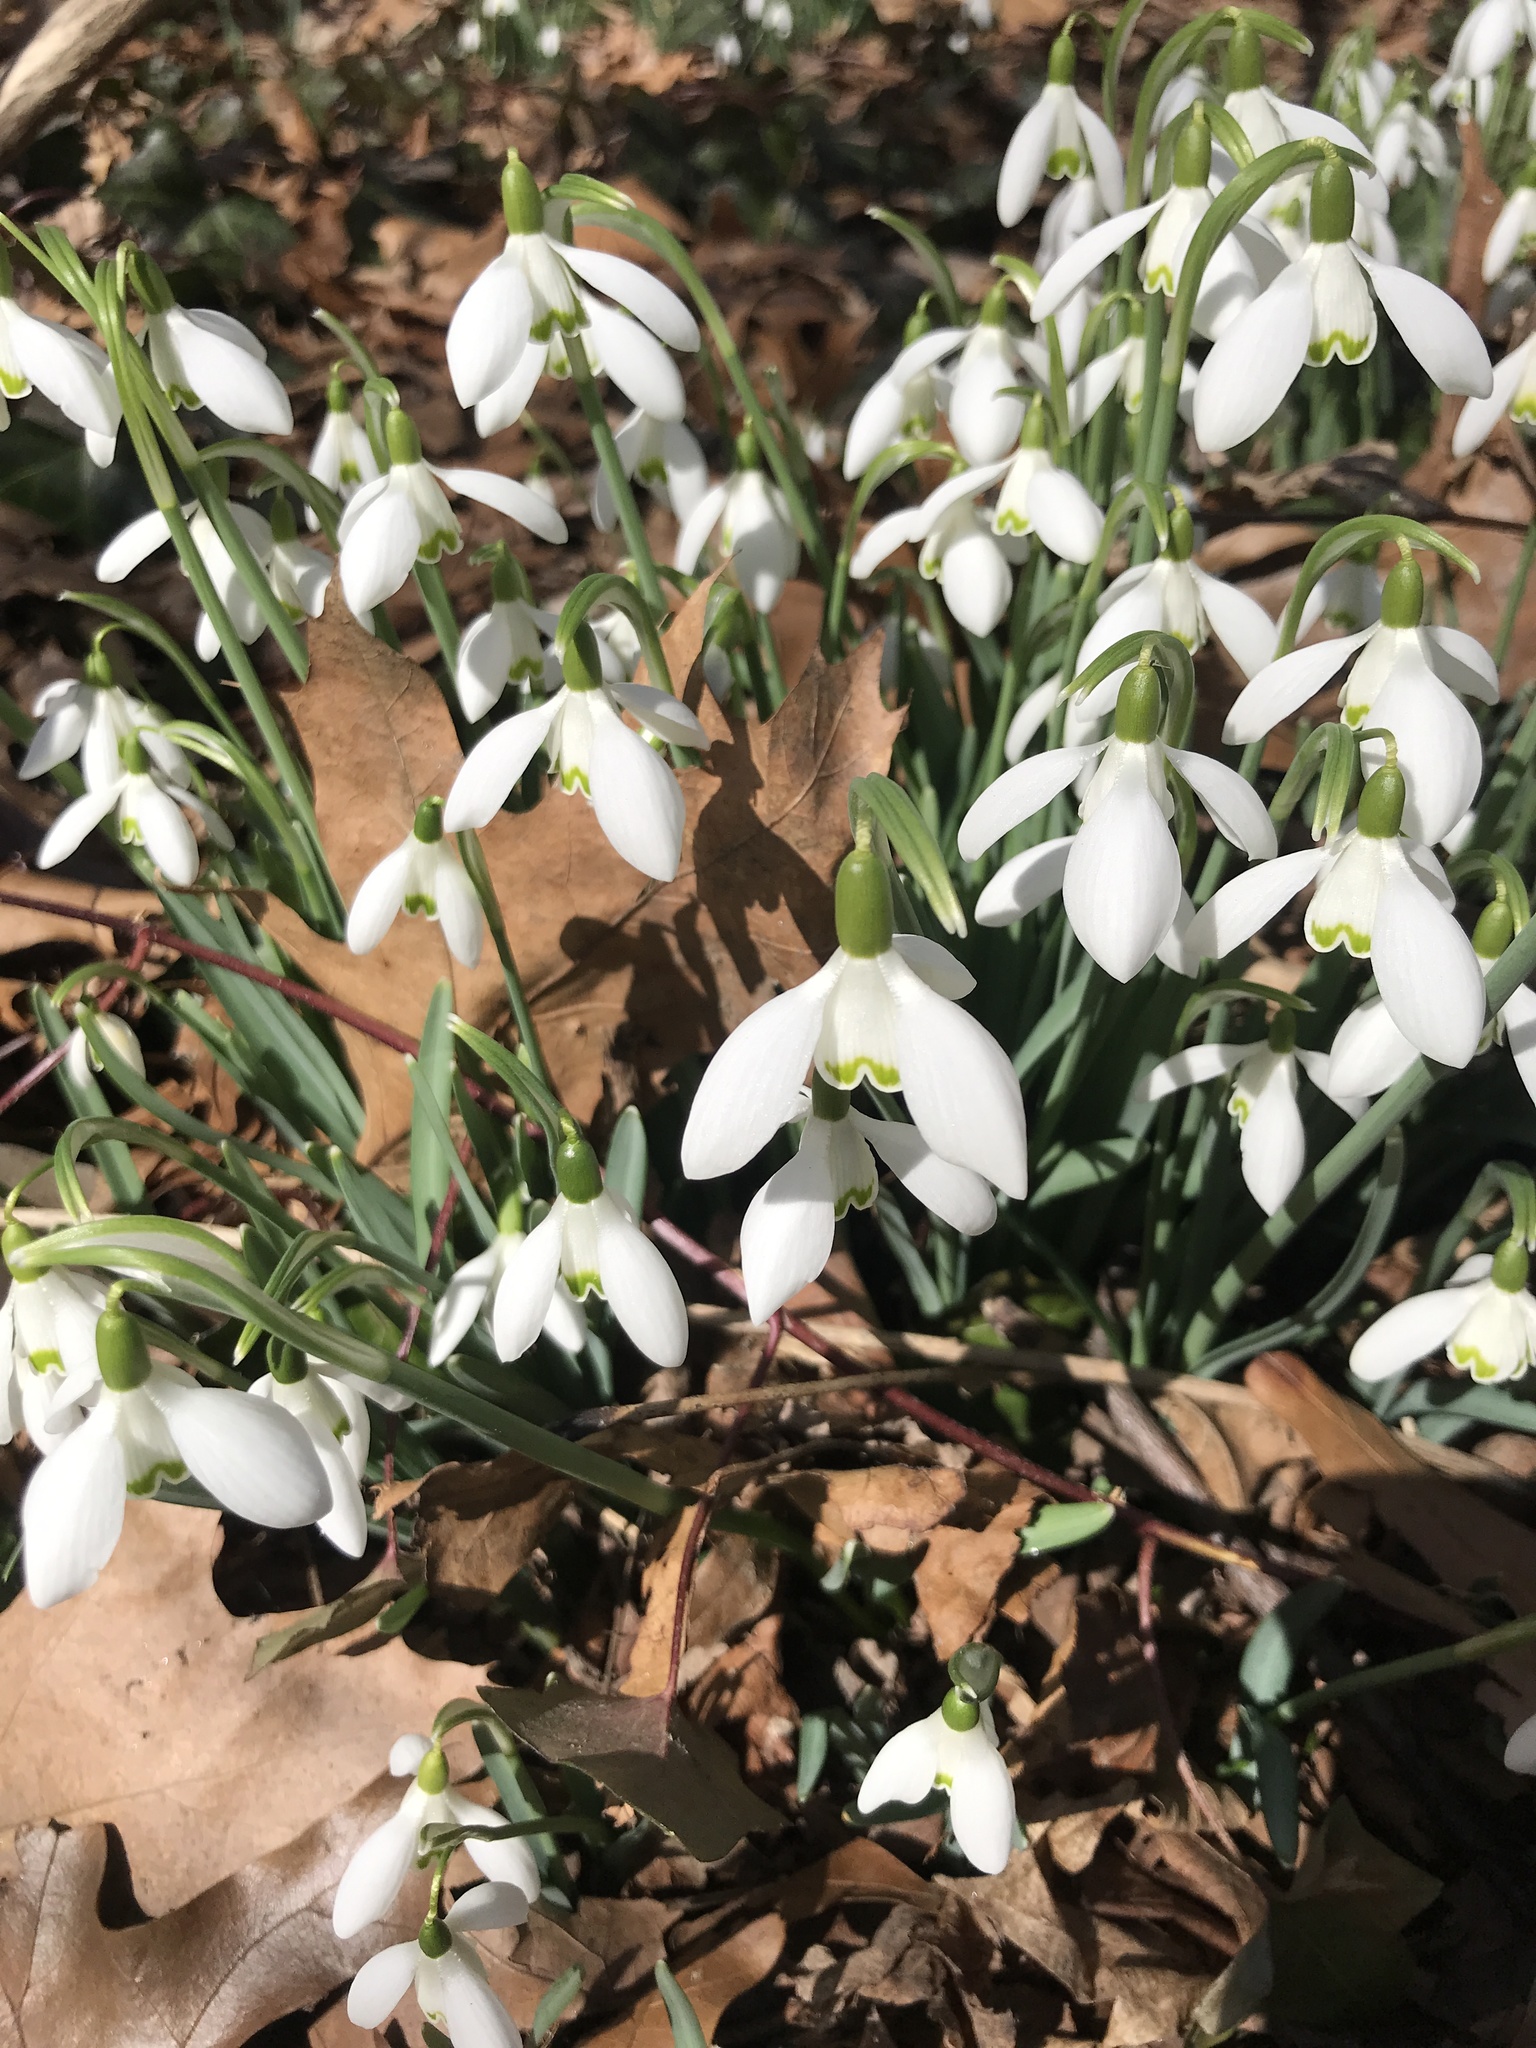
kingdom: Plantae
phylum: Tracheophyta
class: Liliopsida
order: Asparagales
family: Amaryllidaceae
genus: Galanthus
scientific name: Galanthus nivalis
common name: Snowdrop
